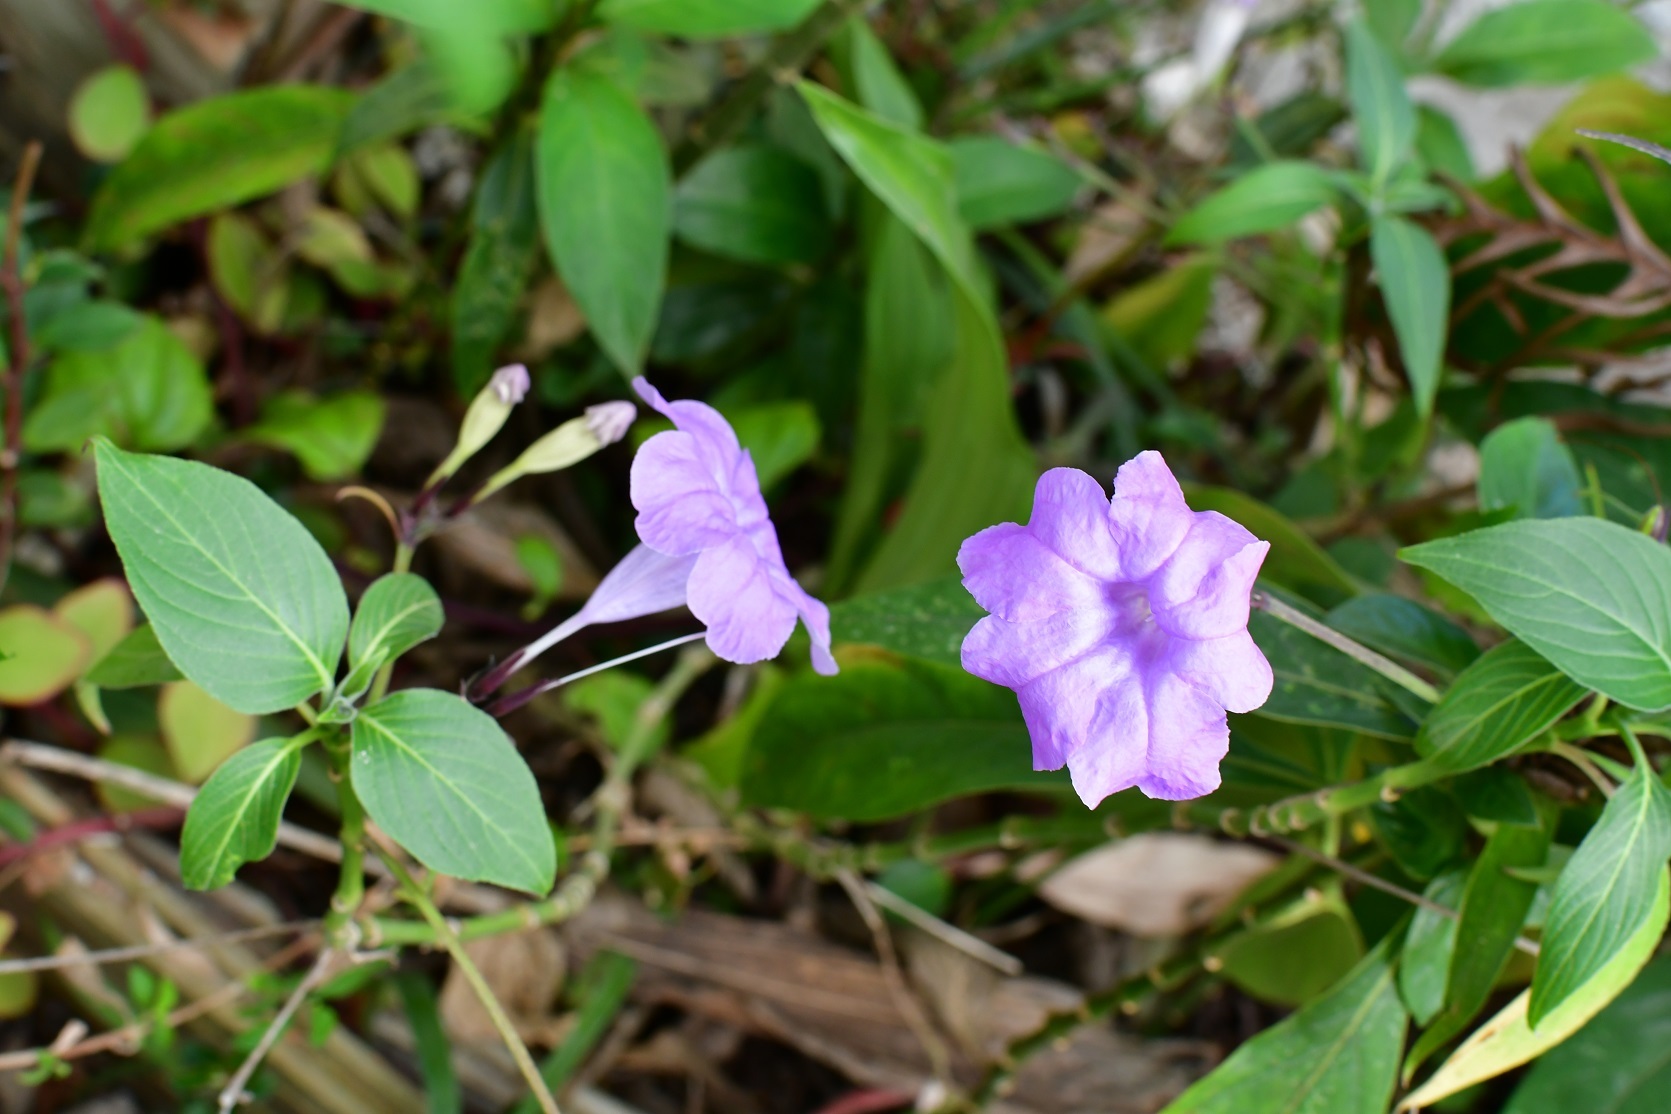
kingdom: Plantae
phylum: Tracheophyta
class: Magnoliopsida
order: Lamiales
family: Acanthaceae
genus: Ruellia
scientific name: Ruellia breedlovei
